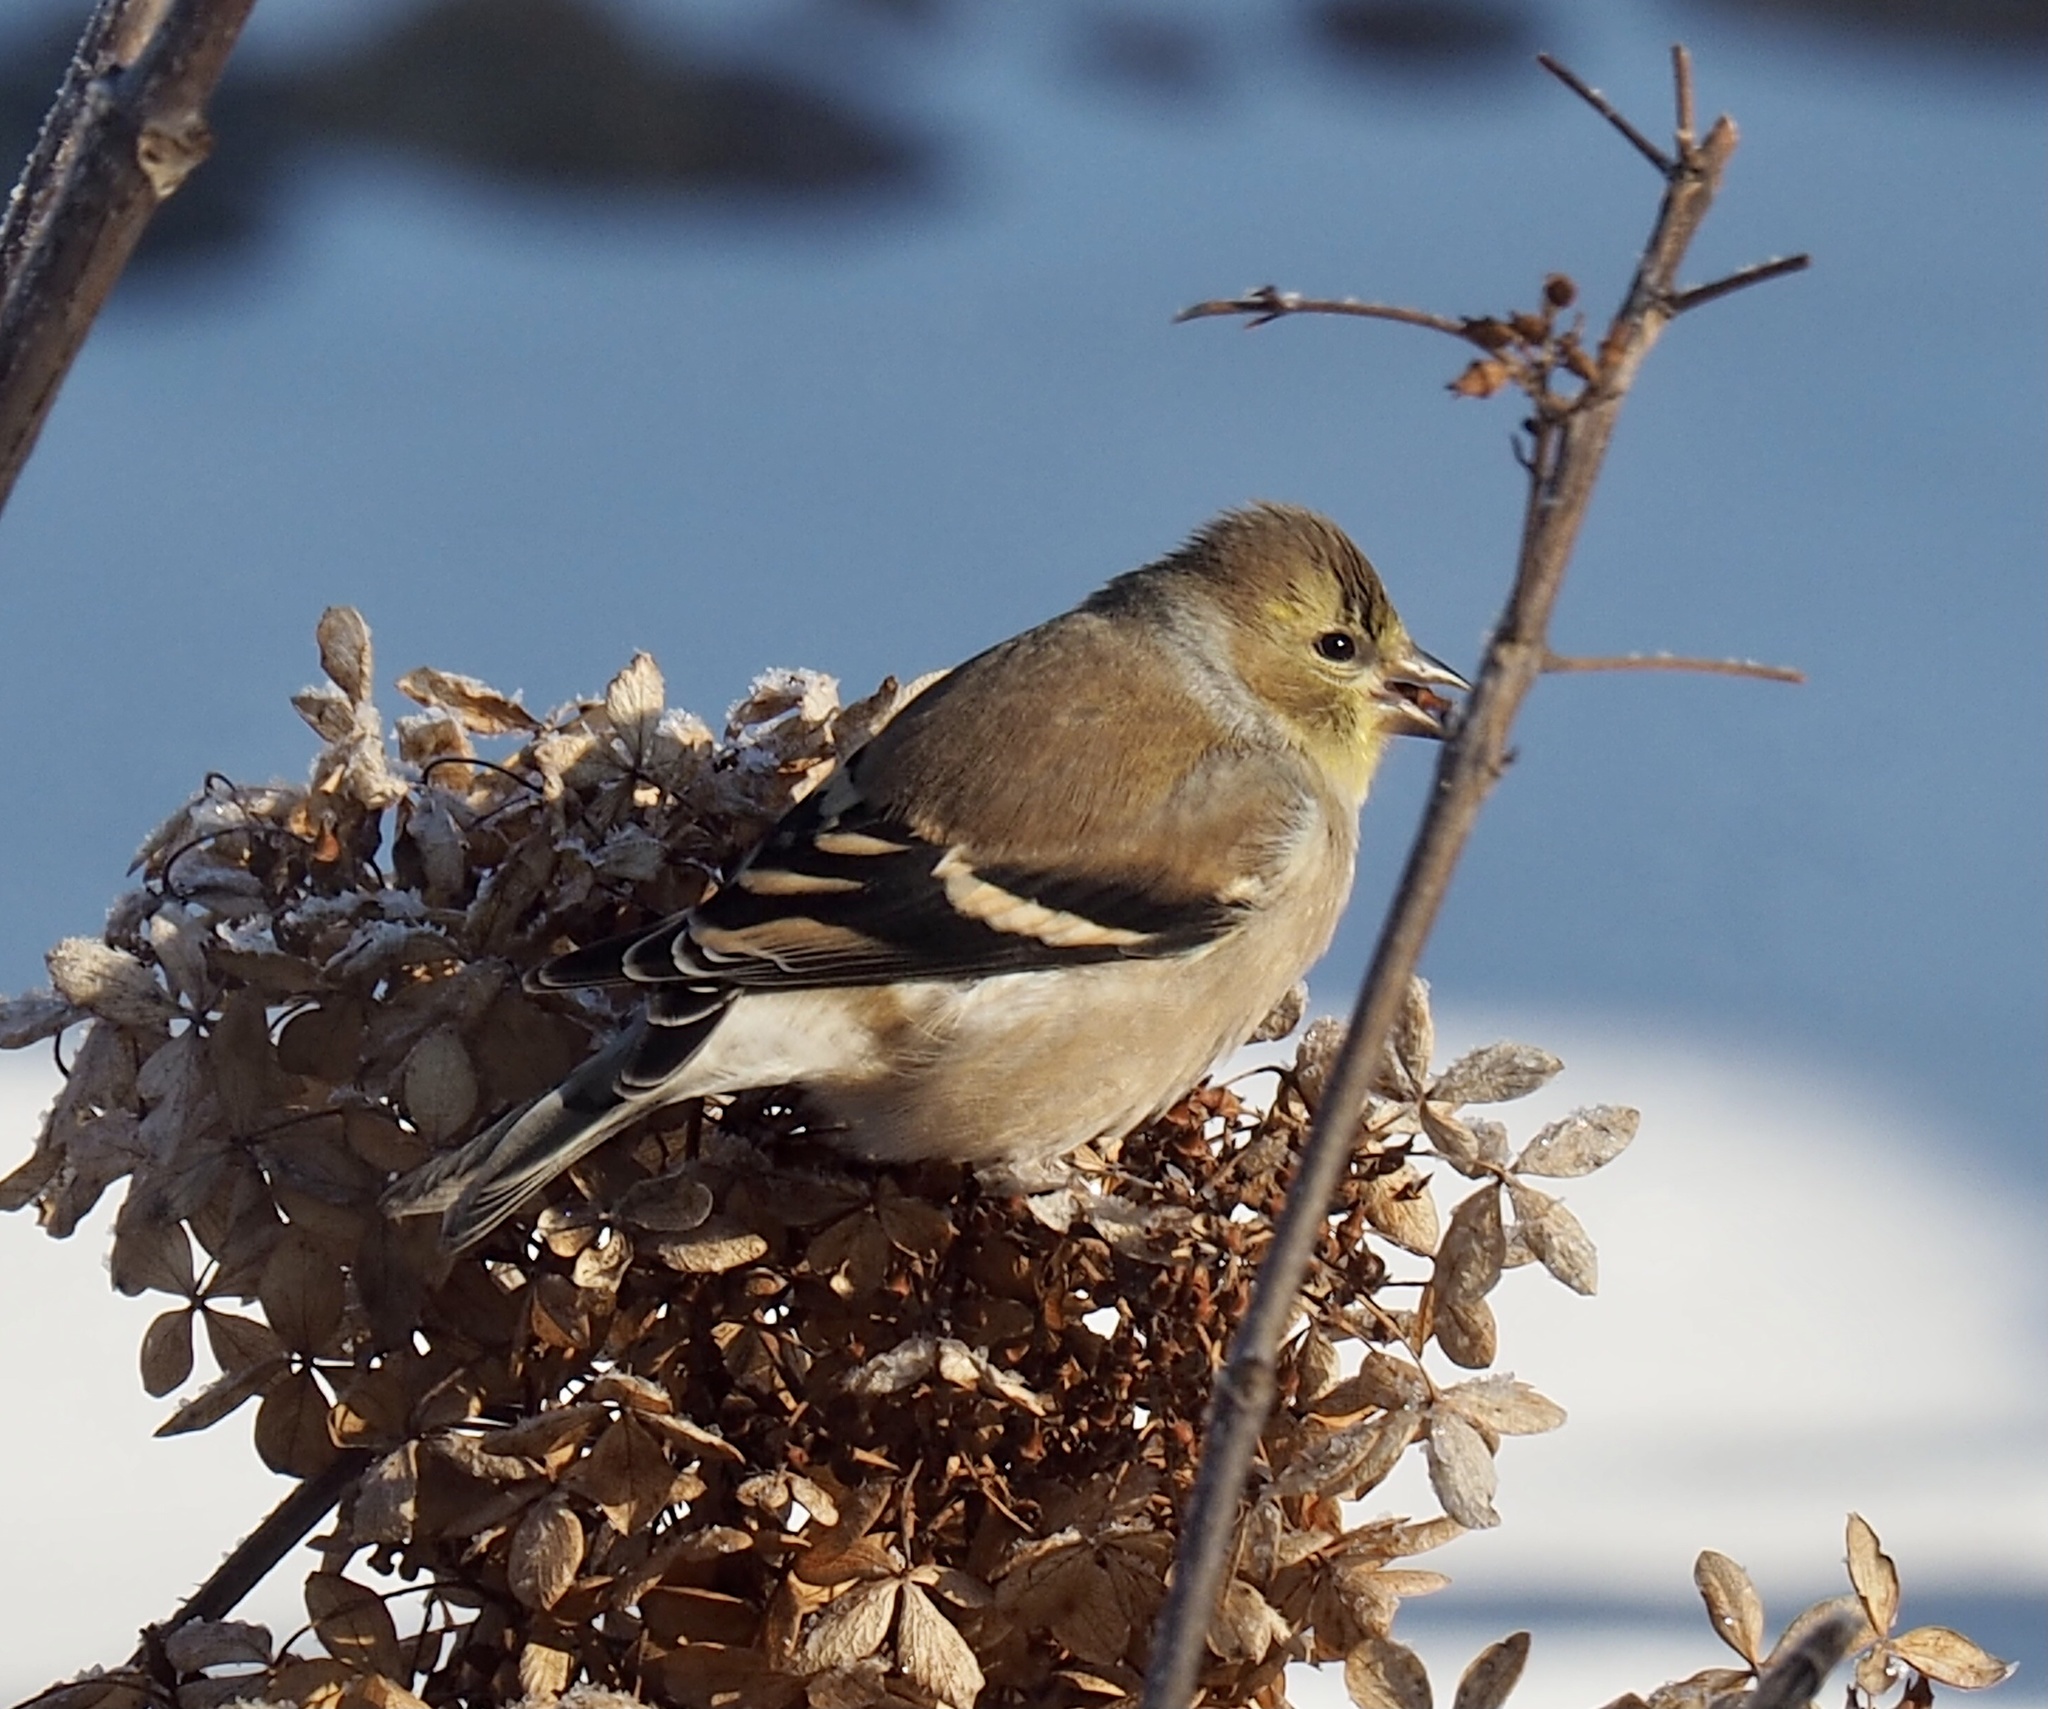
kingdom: Animalia
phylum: Chordata
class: Aves
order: Passeriformes
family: Fringillidae
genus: Spinus
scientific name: Spinus tristis
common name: American goldfinch
